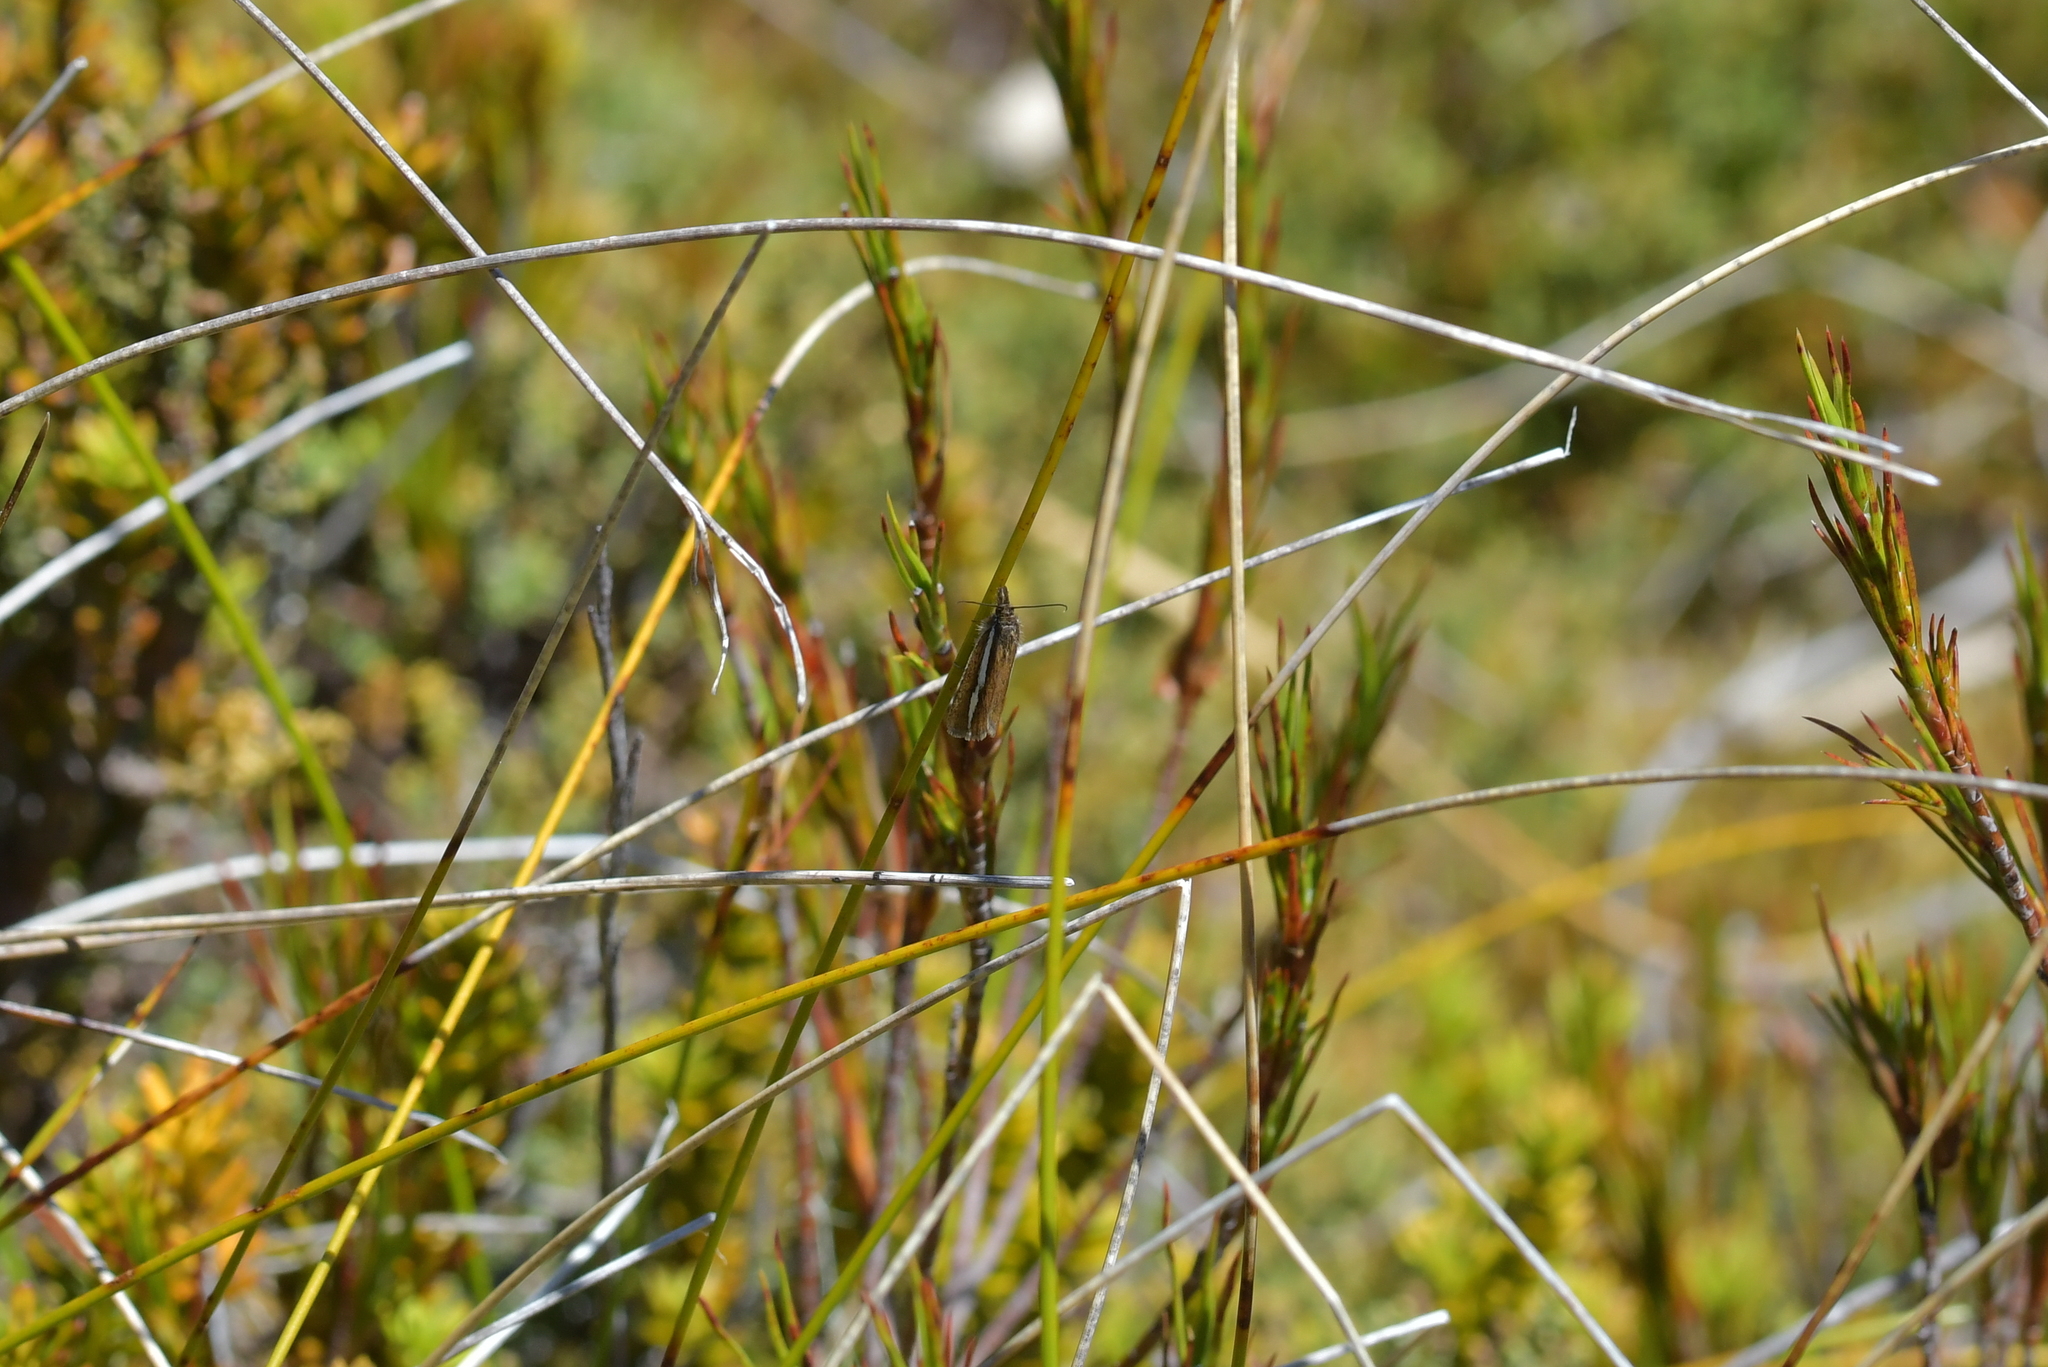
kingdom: Animalia
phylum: Arthropoda
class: Insecta
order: Lepidoptera
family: Crambidae
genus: Orocrambus
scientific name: Orocrambus catacaustus
